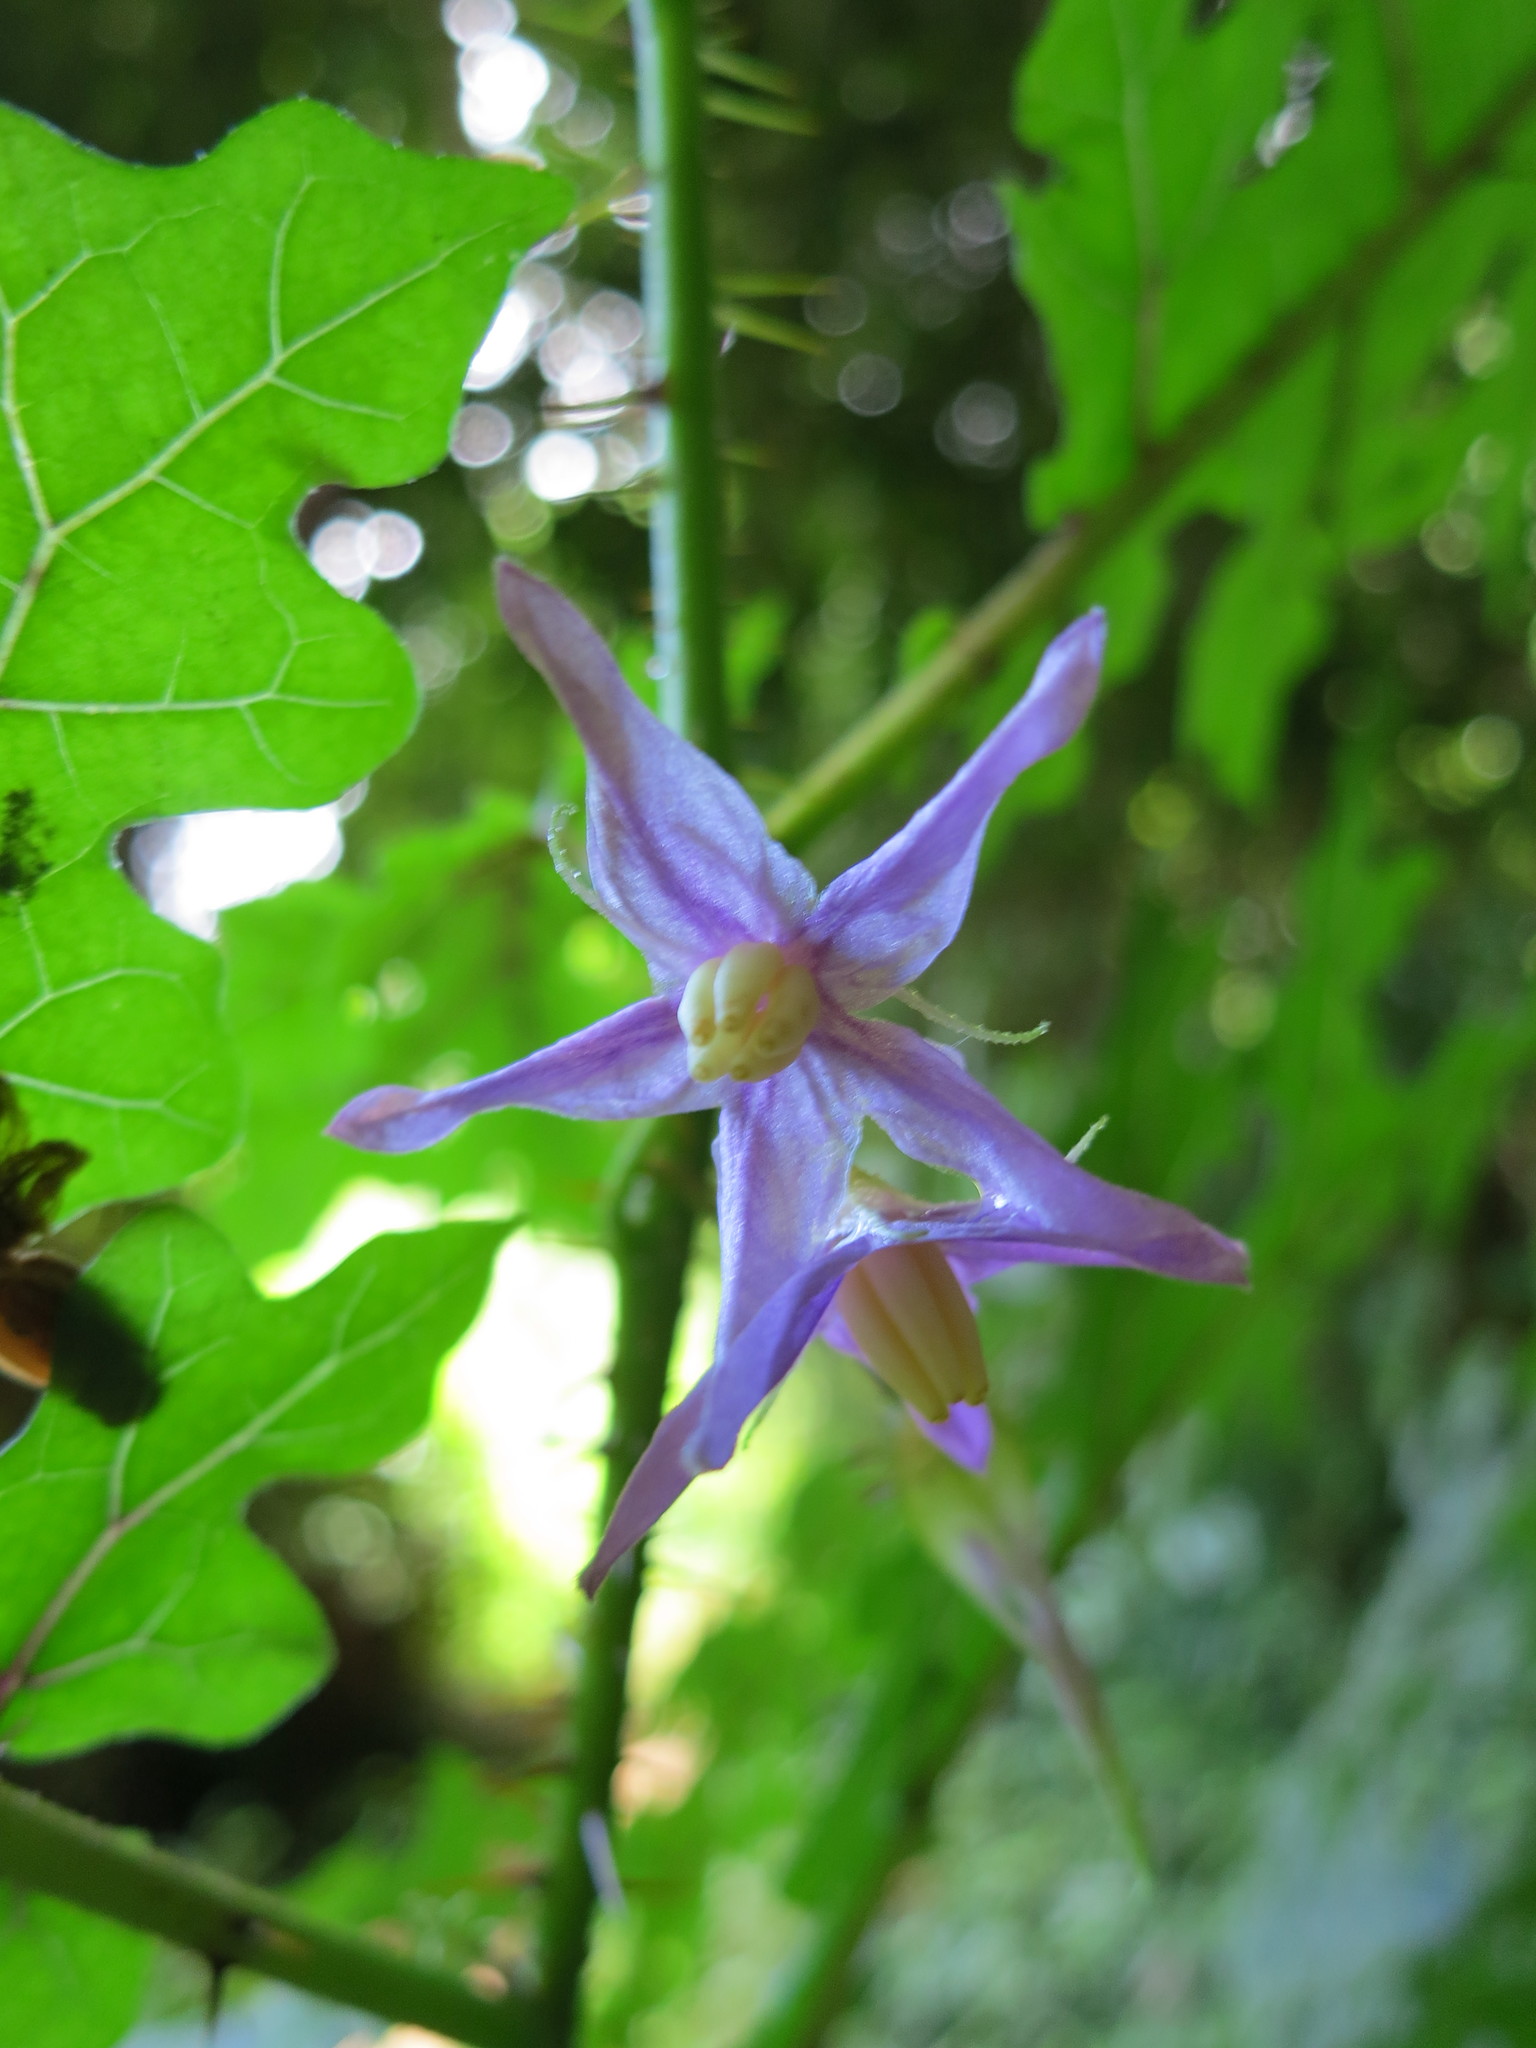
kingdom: Plantae
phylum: Tracheophyta
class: Magnoliopsida
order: Solanales
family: Solanaceae
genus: Solanum
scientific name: Solanum mahoriense
